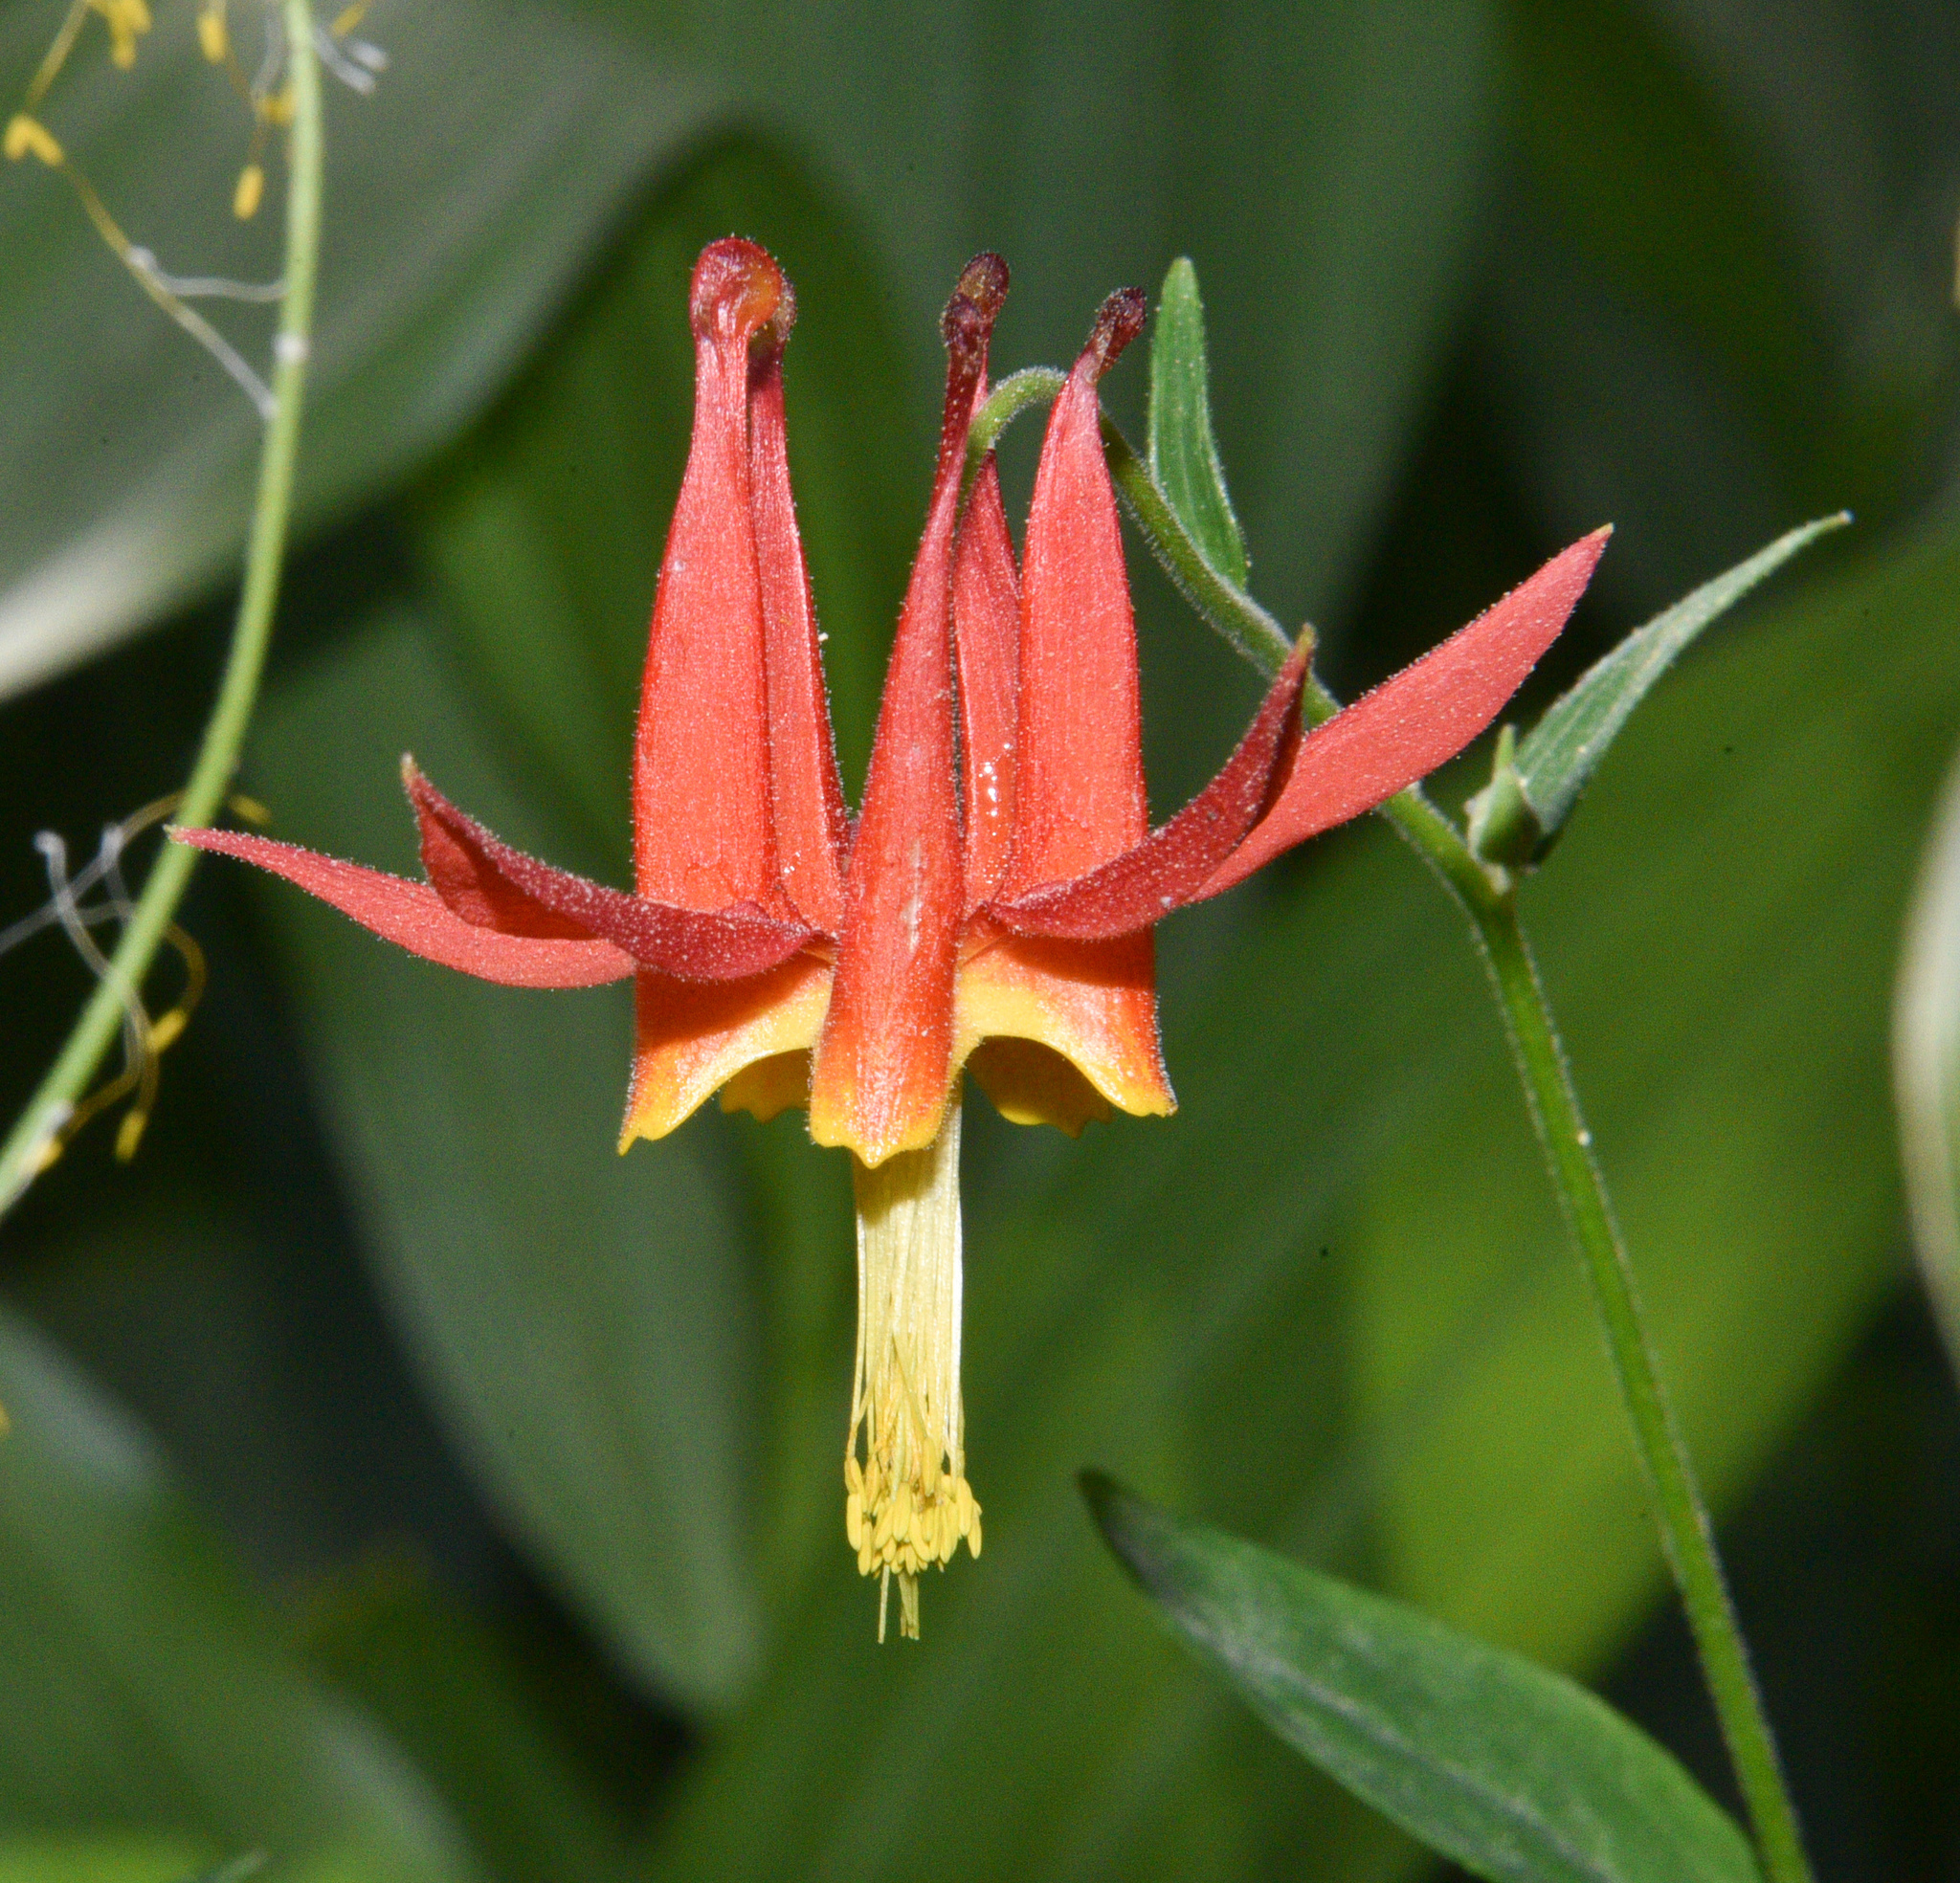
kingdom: Plantae
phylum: Tracheophyta
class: Magnoliopsida
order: Ranunculales
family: Ranunculaceae
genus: Aquilegia
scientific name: Aquilegia formosa
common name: Sitka columbine
